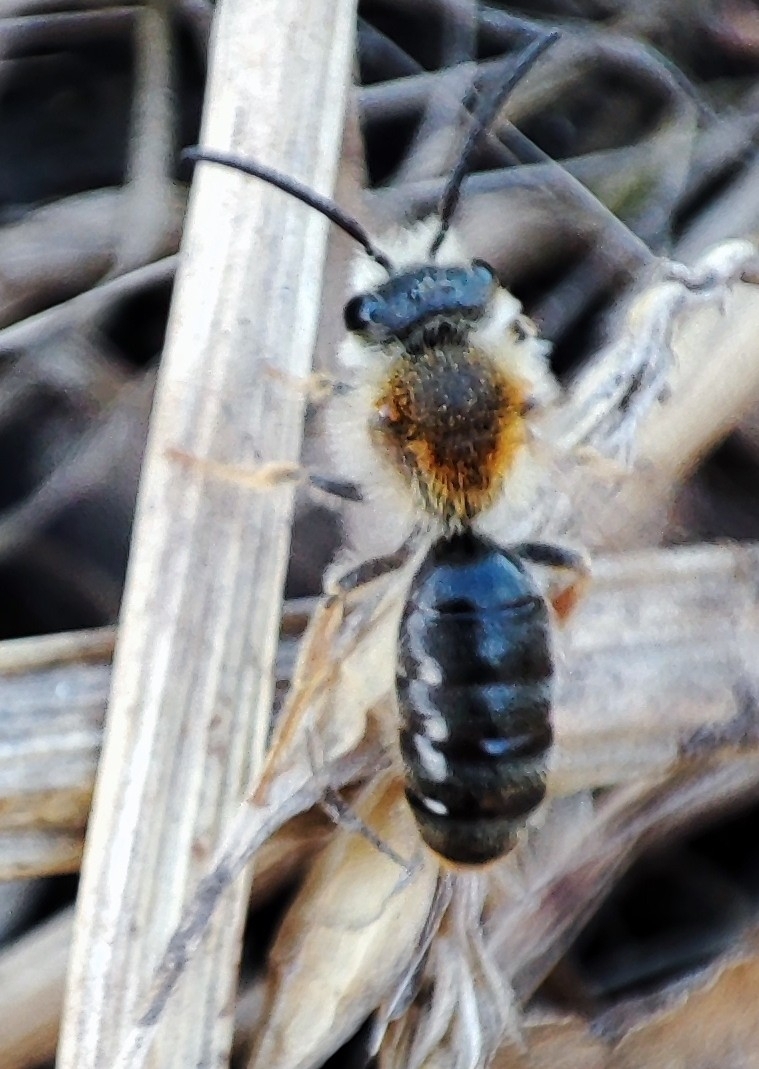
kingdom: Animalia
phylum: Arthropoda
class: Insecta
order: Hymenoptera
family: Andrenidae
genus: Andrena
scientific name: Andrena haemorrhoa
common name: Early mining bee
